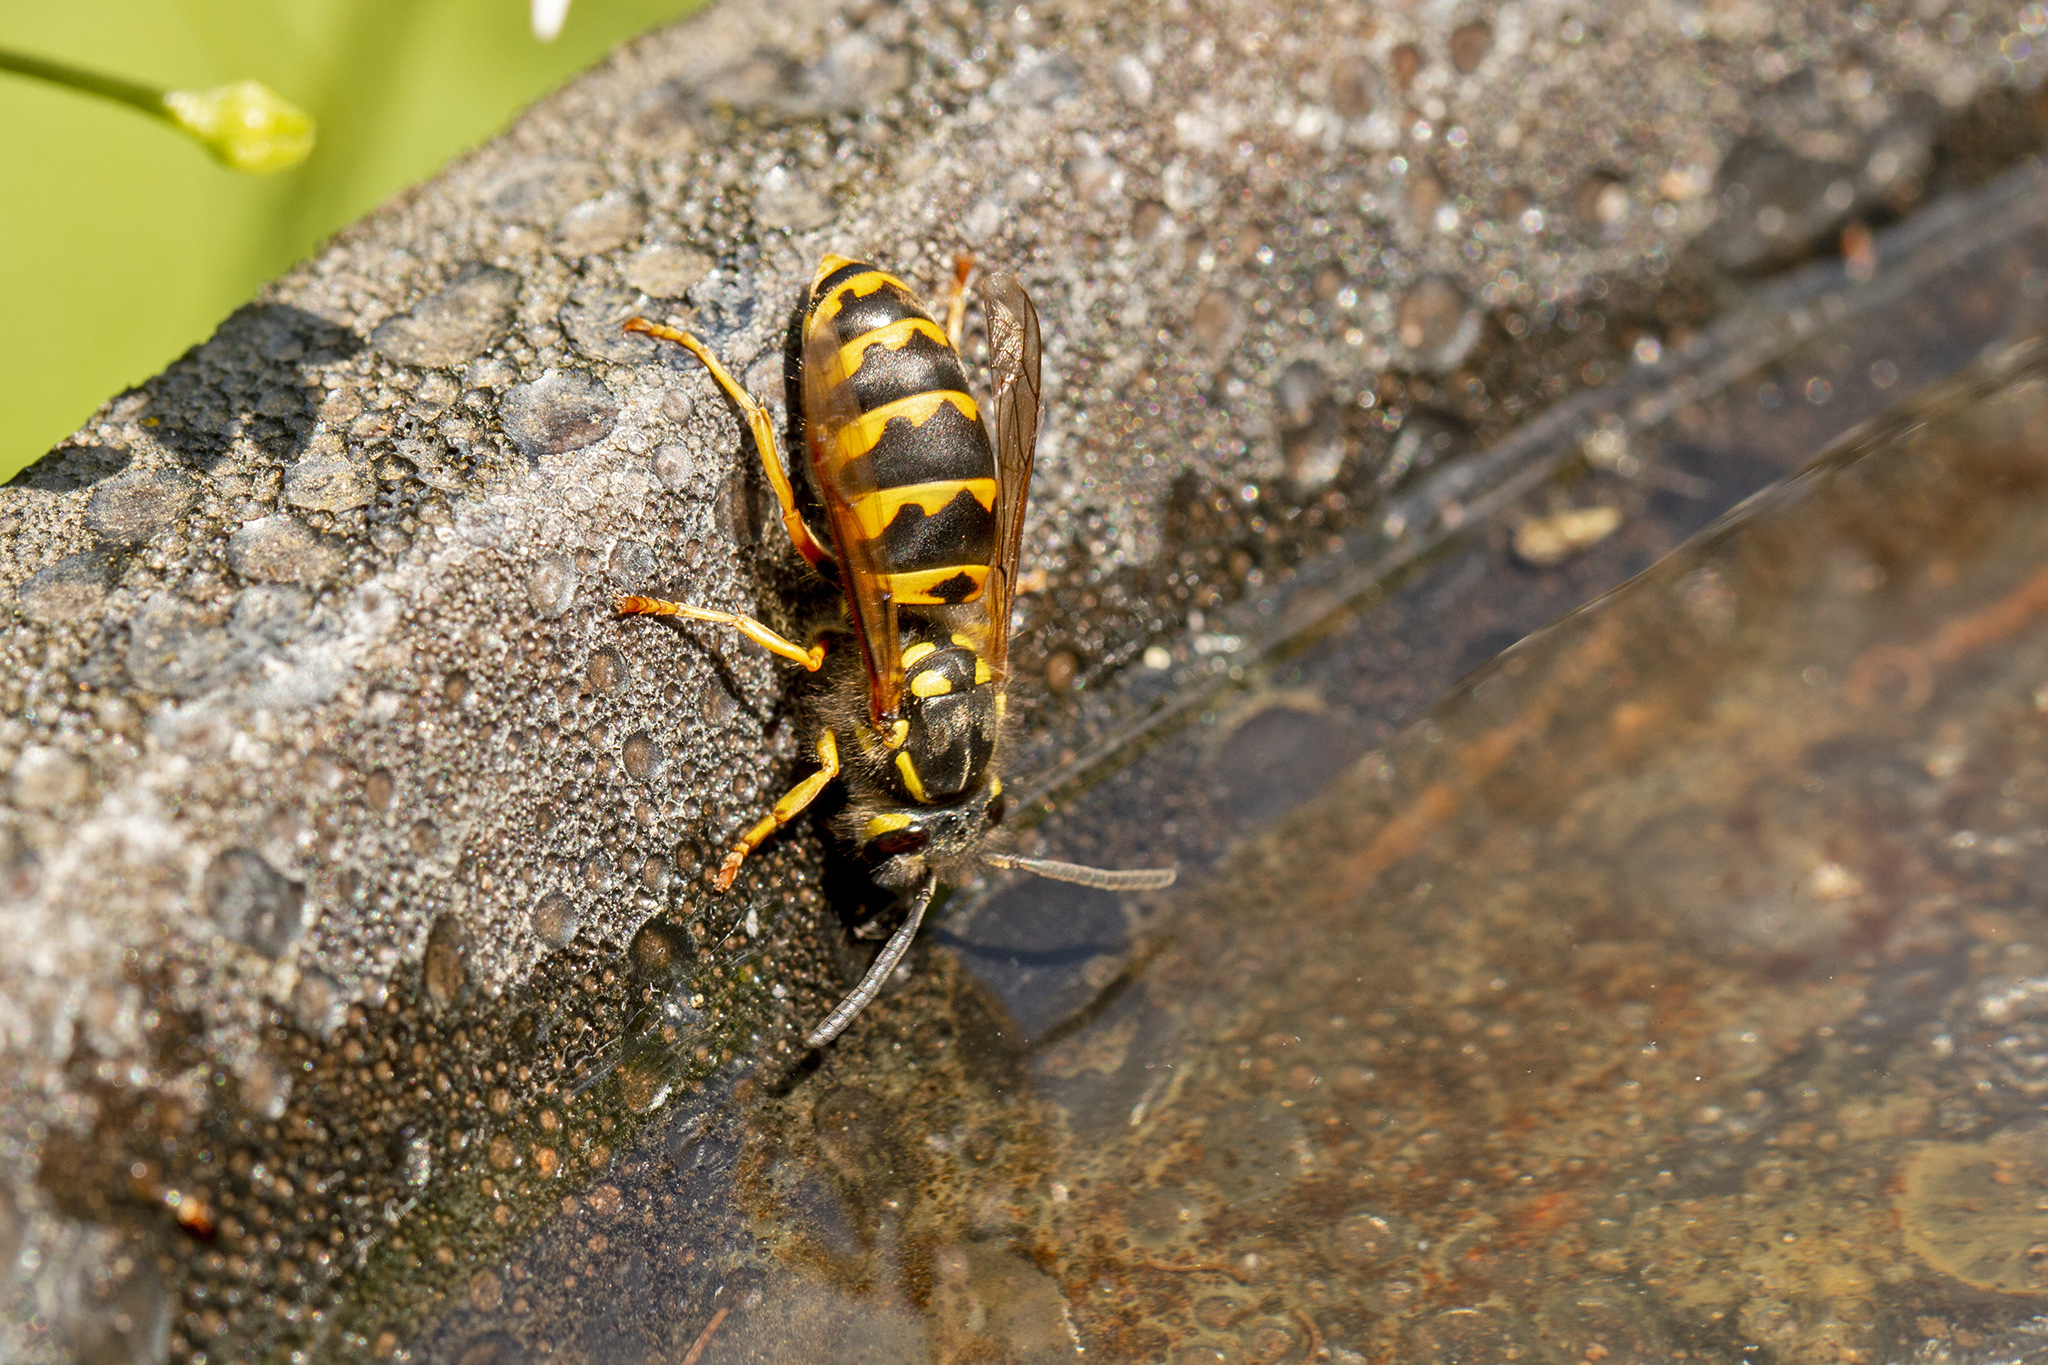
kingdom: Animalia
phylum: Arthropoda
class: Insecta
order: Hymenoptera
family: Vespidae
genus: Vespula
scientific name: Vespula germanica
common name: German wasp
